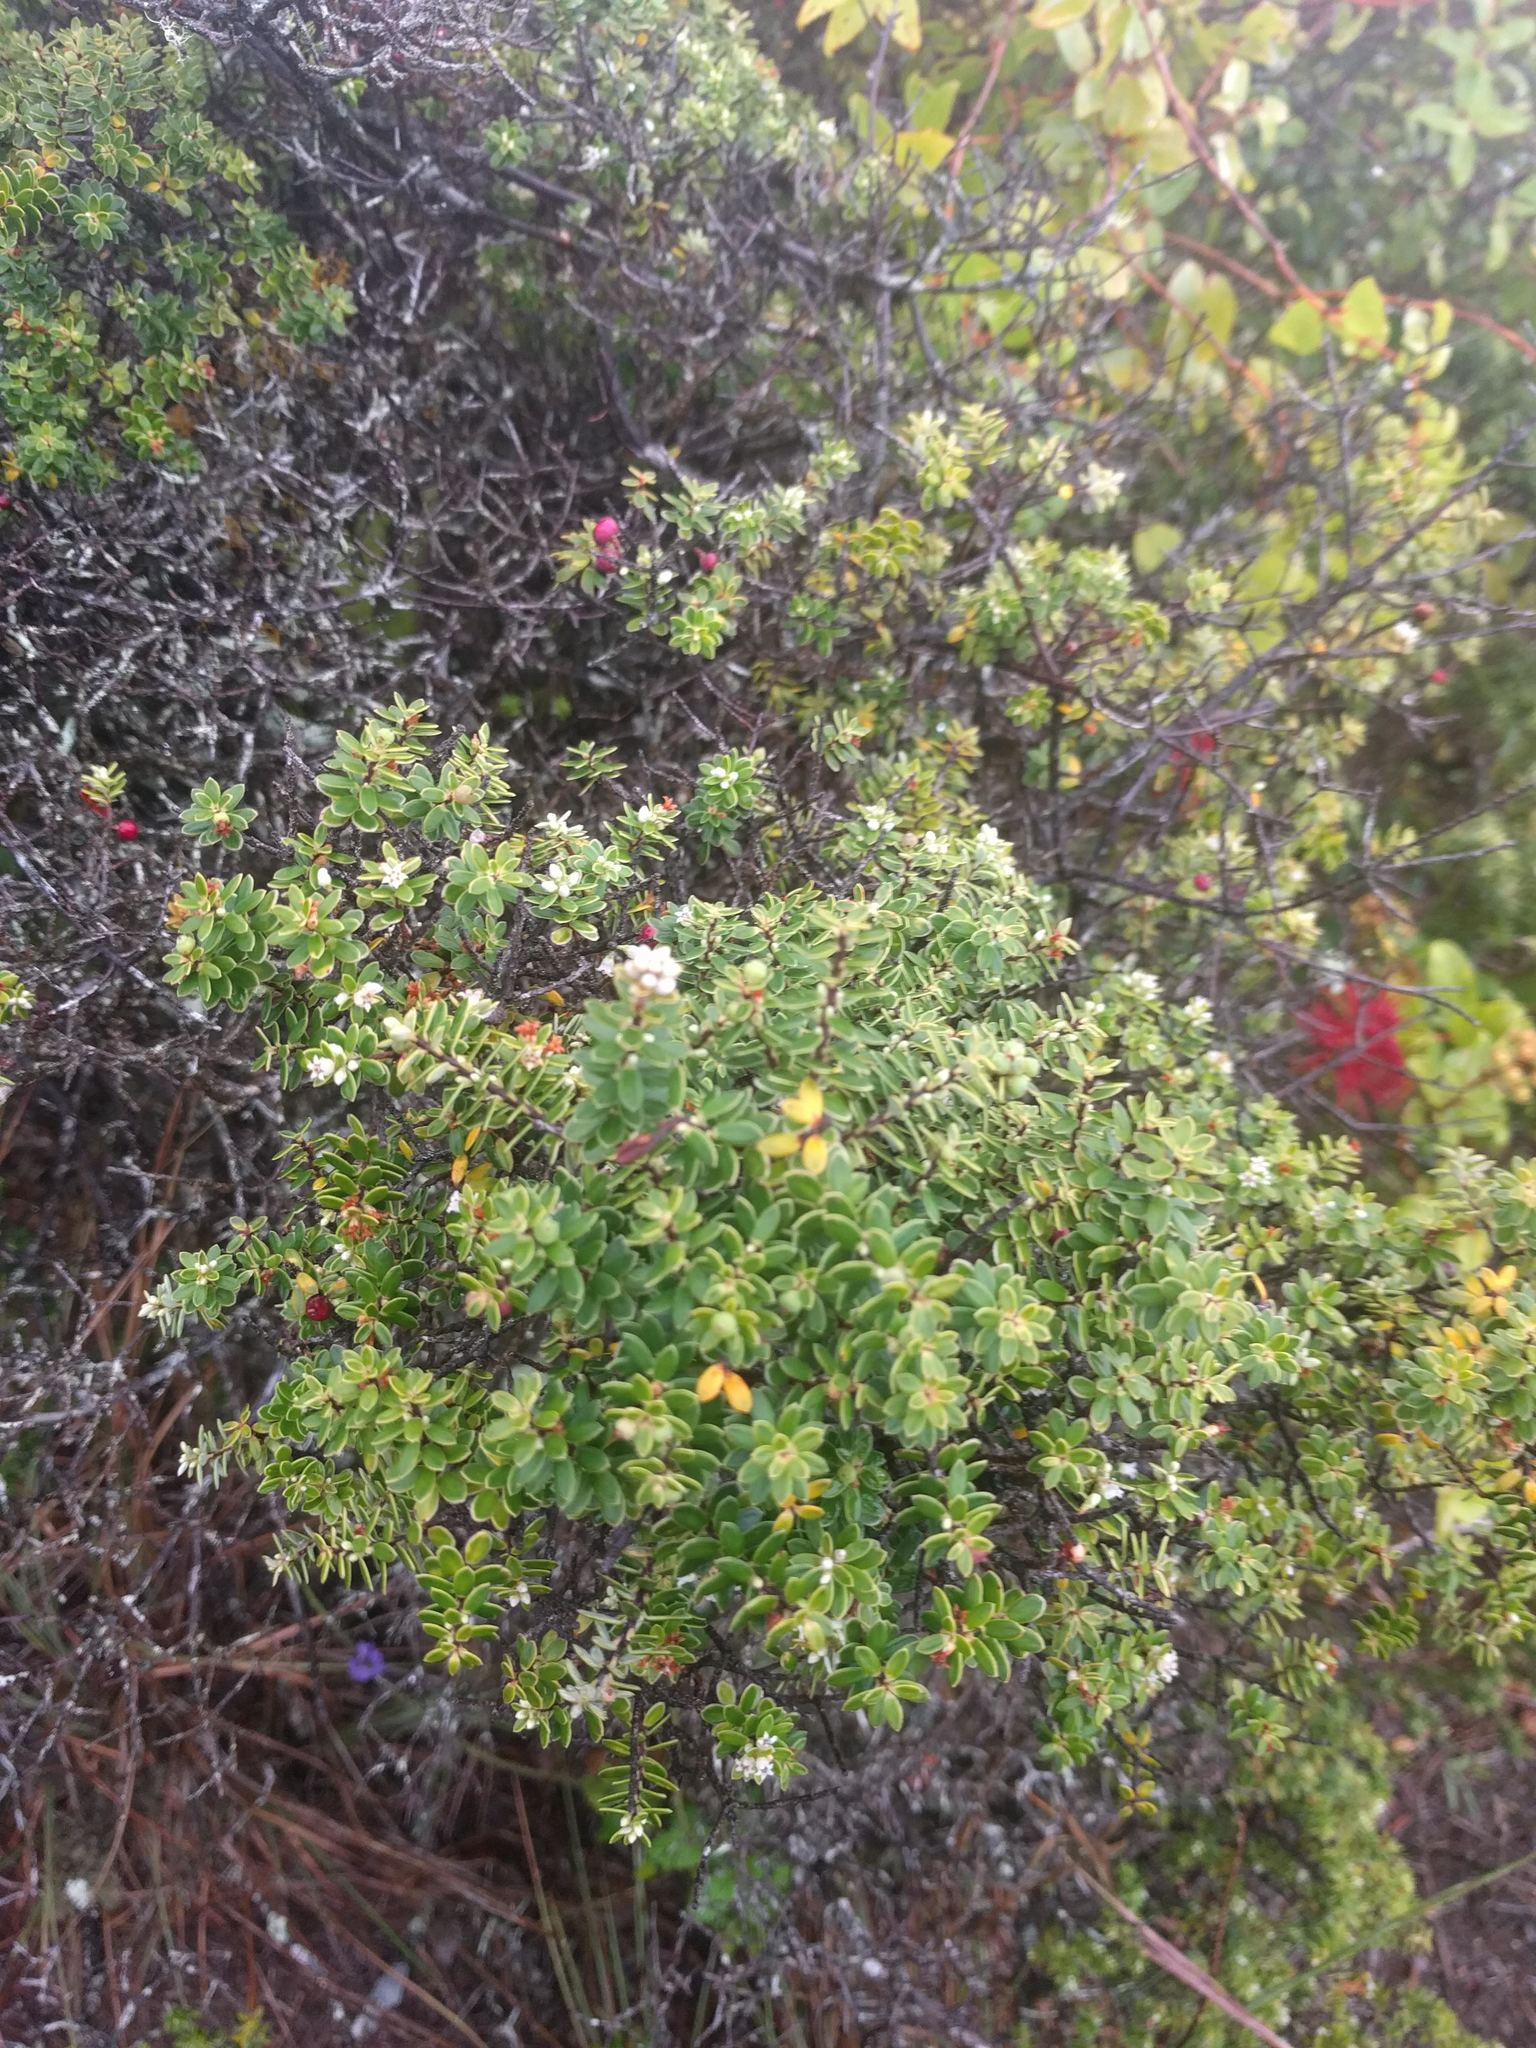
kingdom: Plantae
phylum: Tracheophyta
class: Magnoliopsida
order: Ericales
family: Ericaceae
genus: Leptecophylla
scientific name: Leptecophylla tameiameiae
